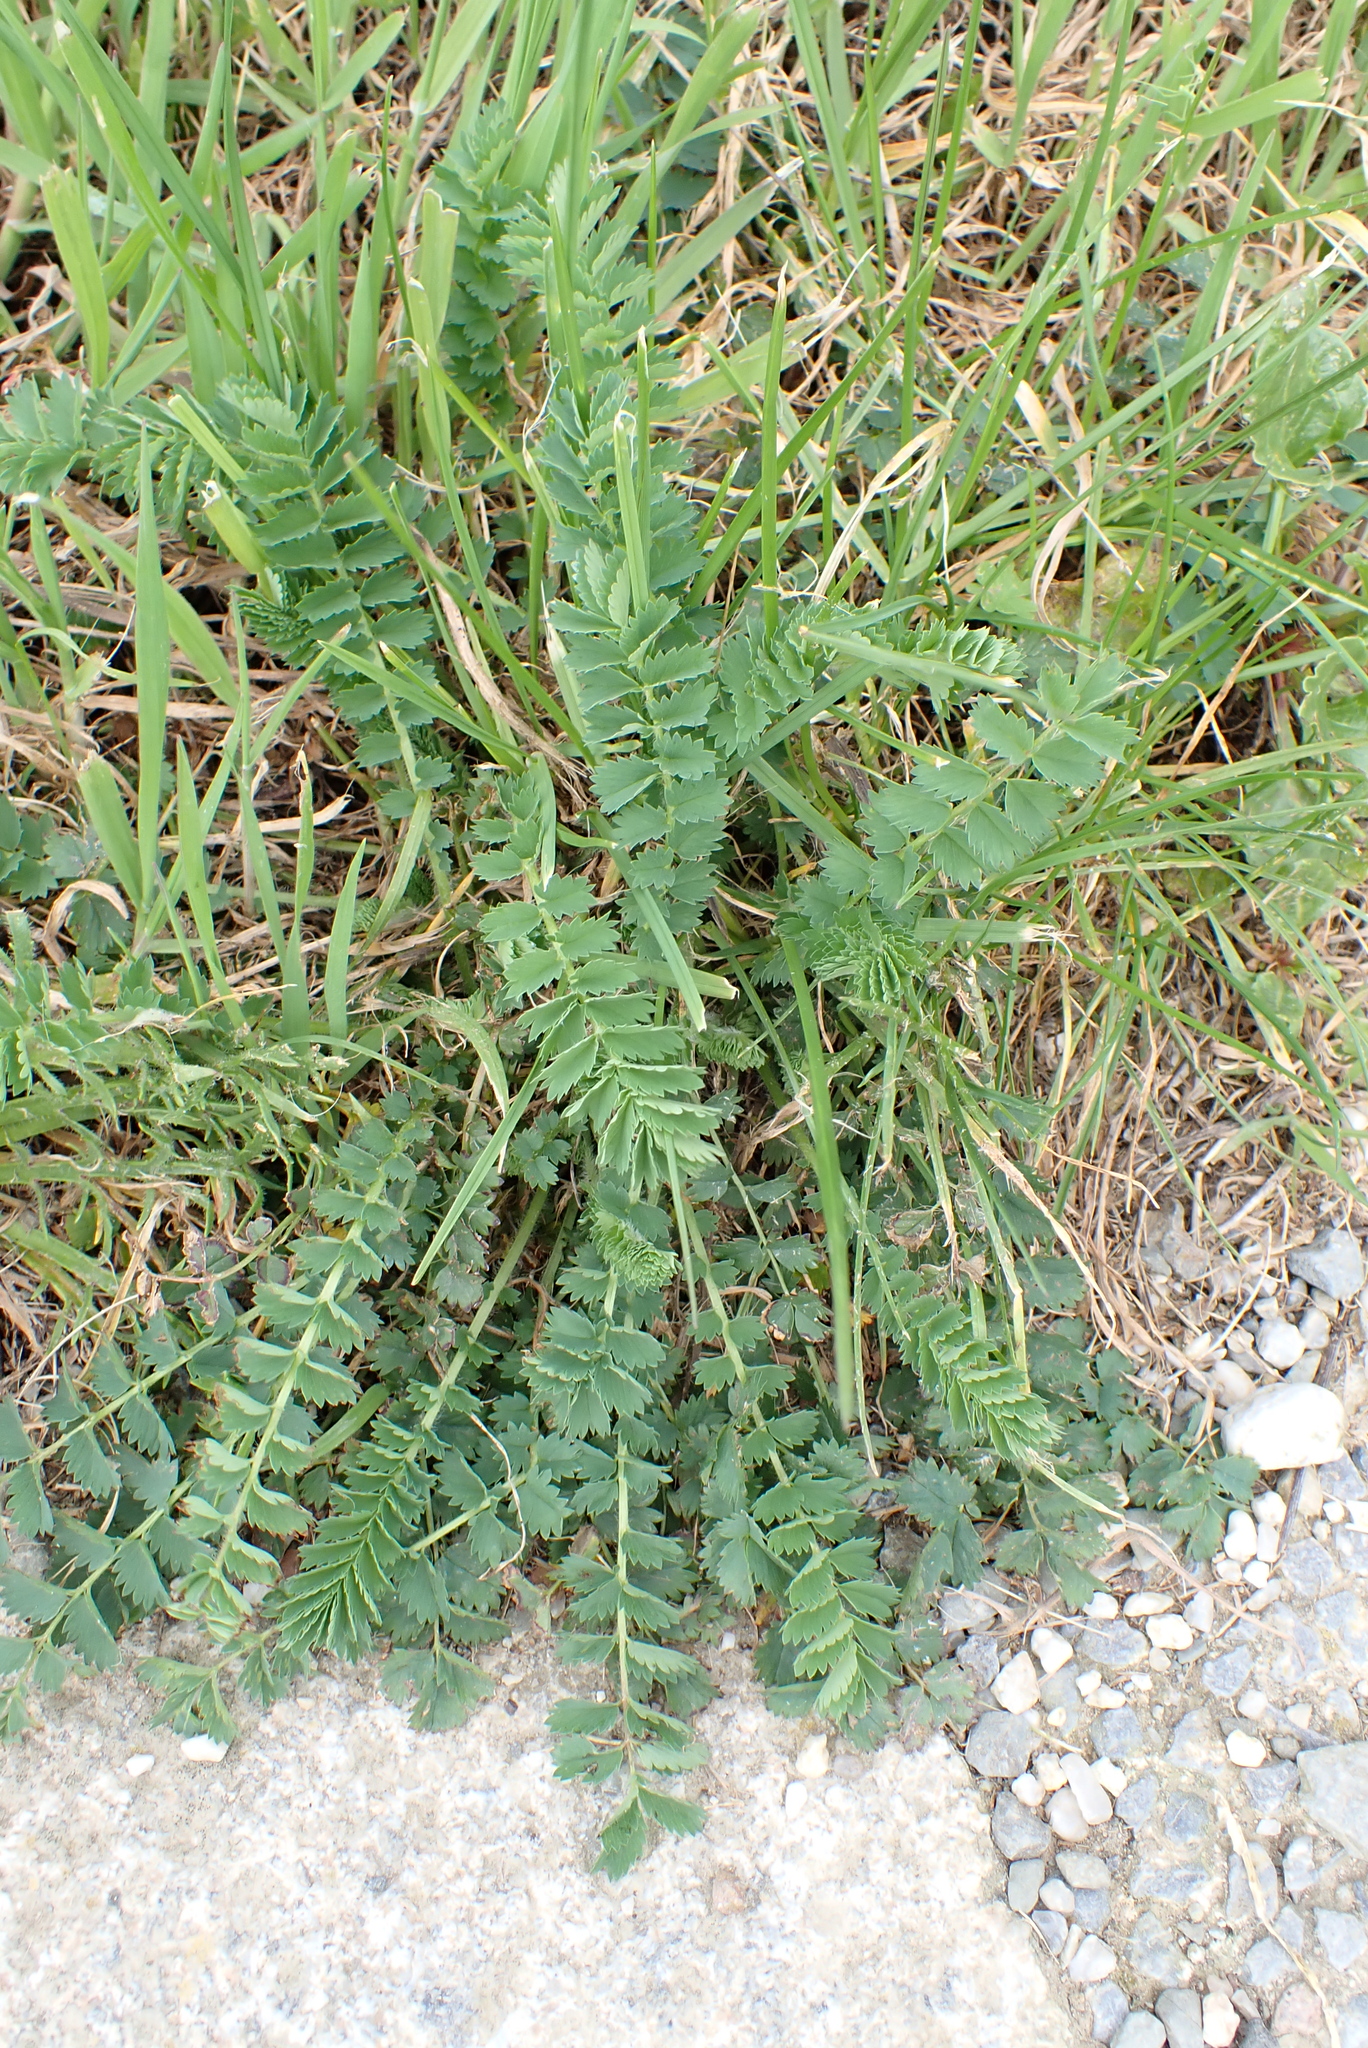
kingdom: Plantae
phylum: Tracheophyta
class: Magnoliopsida
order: Rosales
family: Rosaceae
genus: Poterium
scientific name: Poterium sanguisorba
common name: Salad burnet
